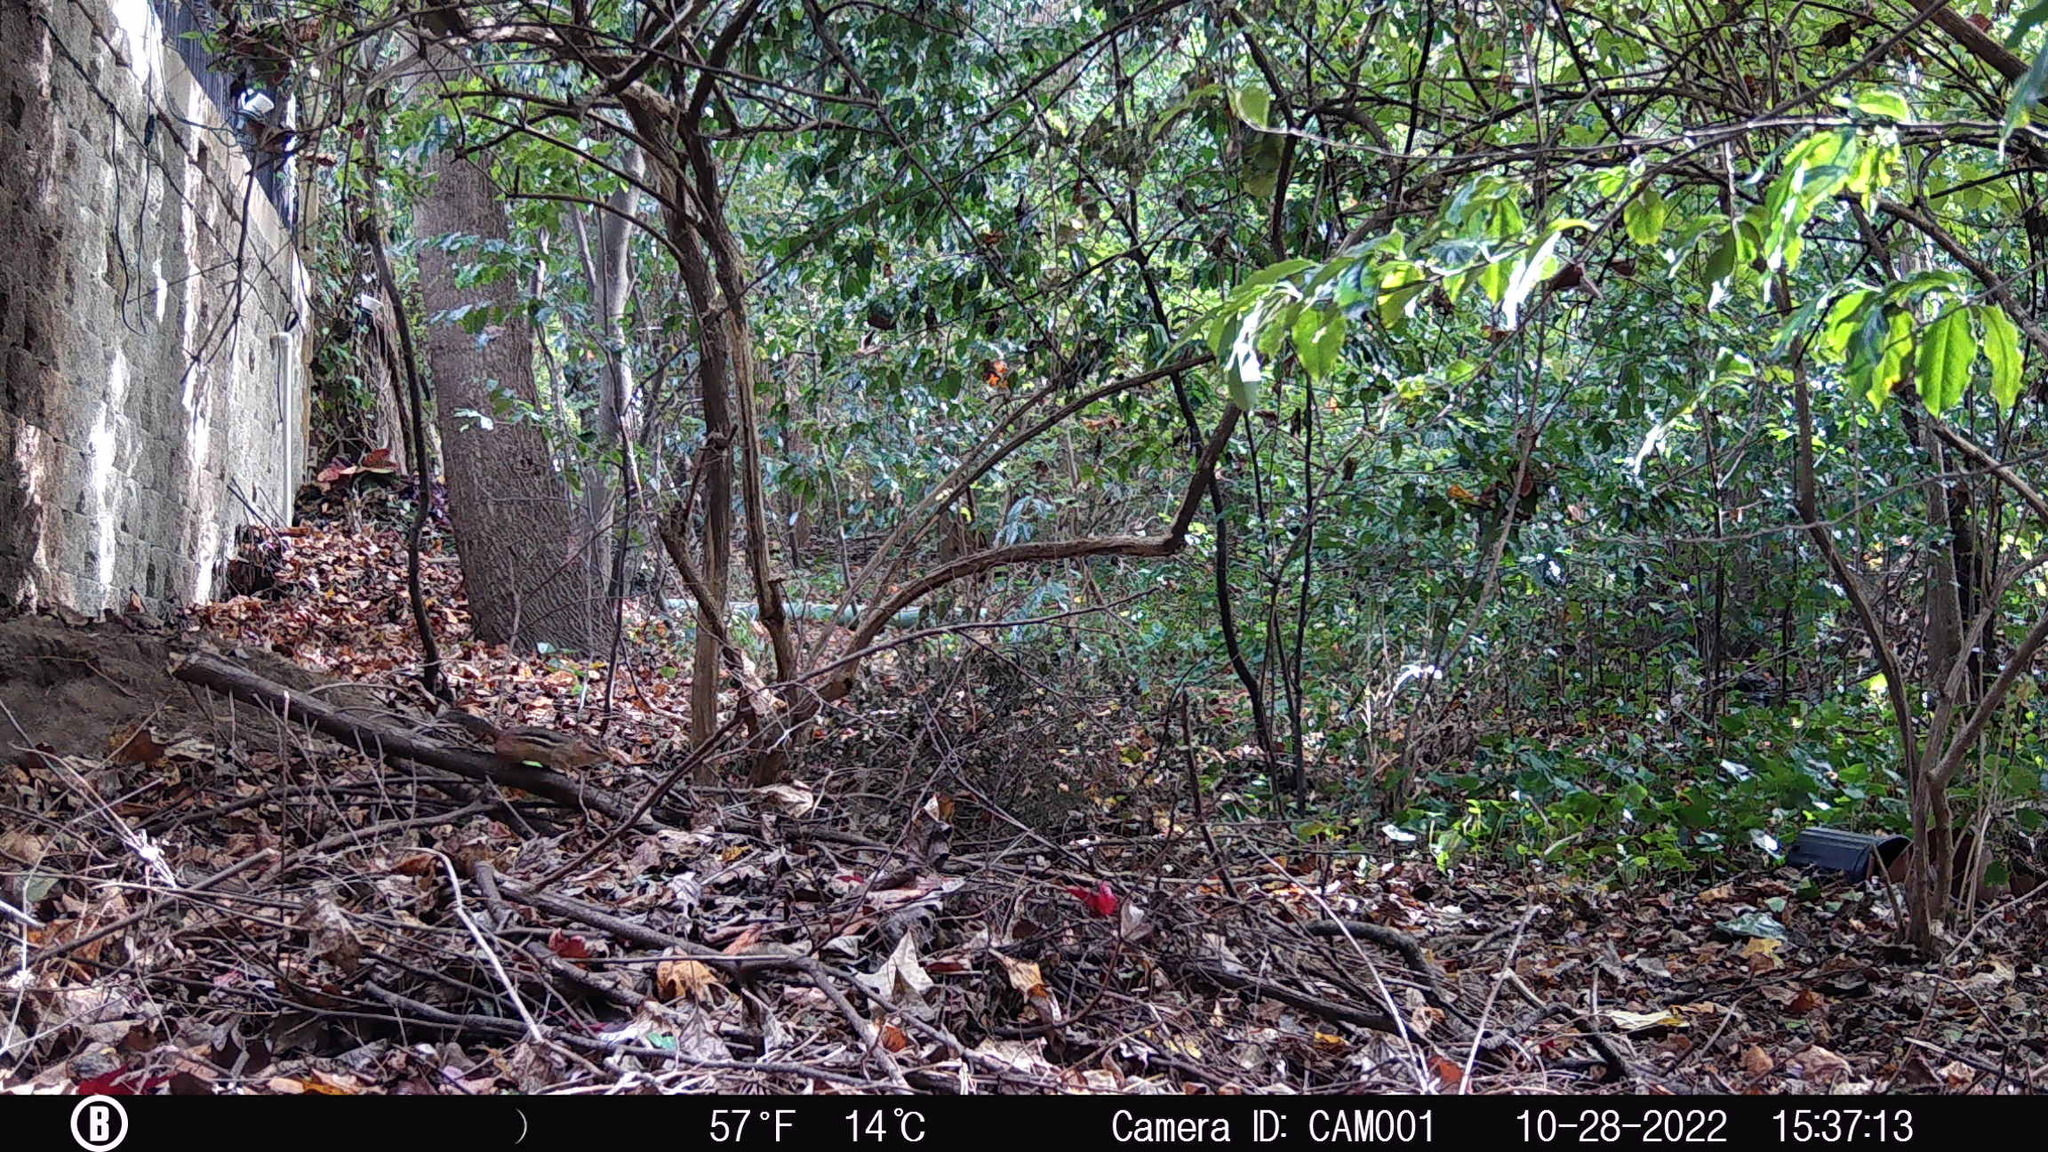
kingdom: Animalia
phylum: Chordata
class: Mammalia
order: Rodentia
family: Sciuridae
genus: Tamias
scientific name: Tamias striatus
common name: Eastern chipmunk
